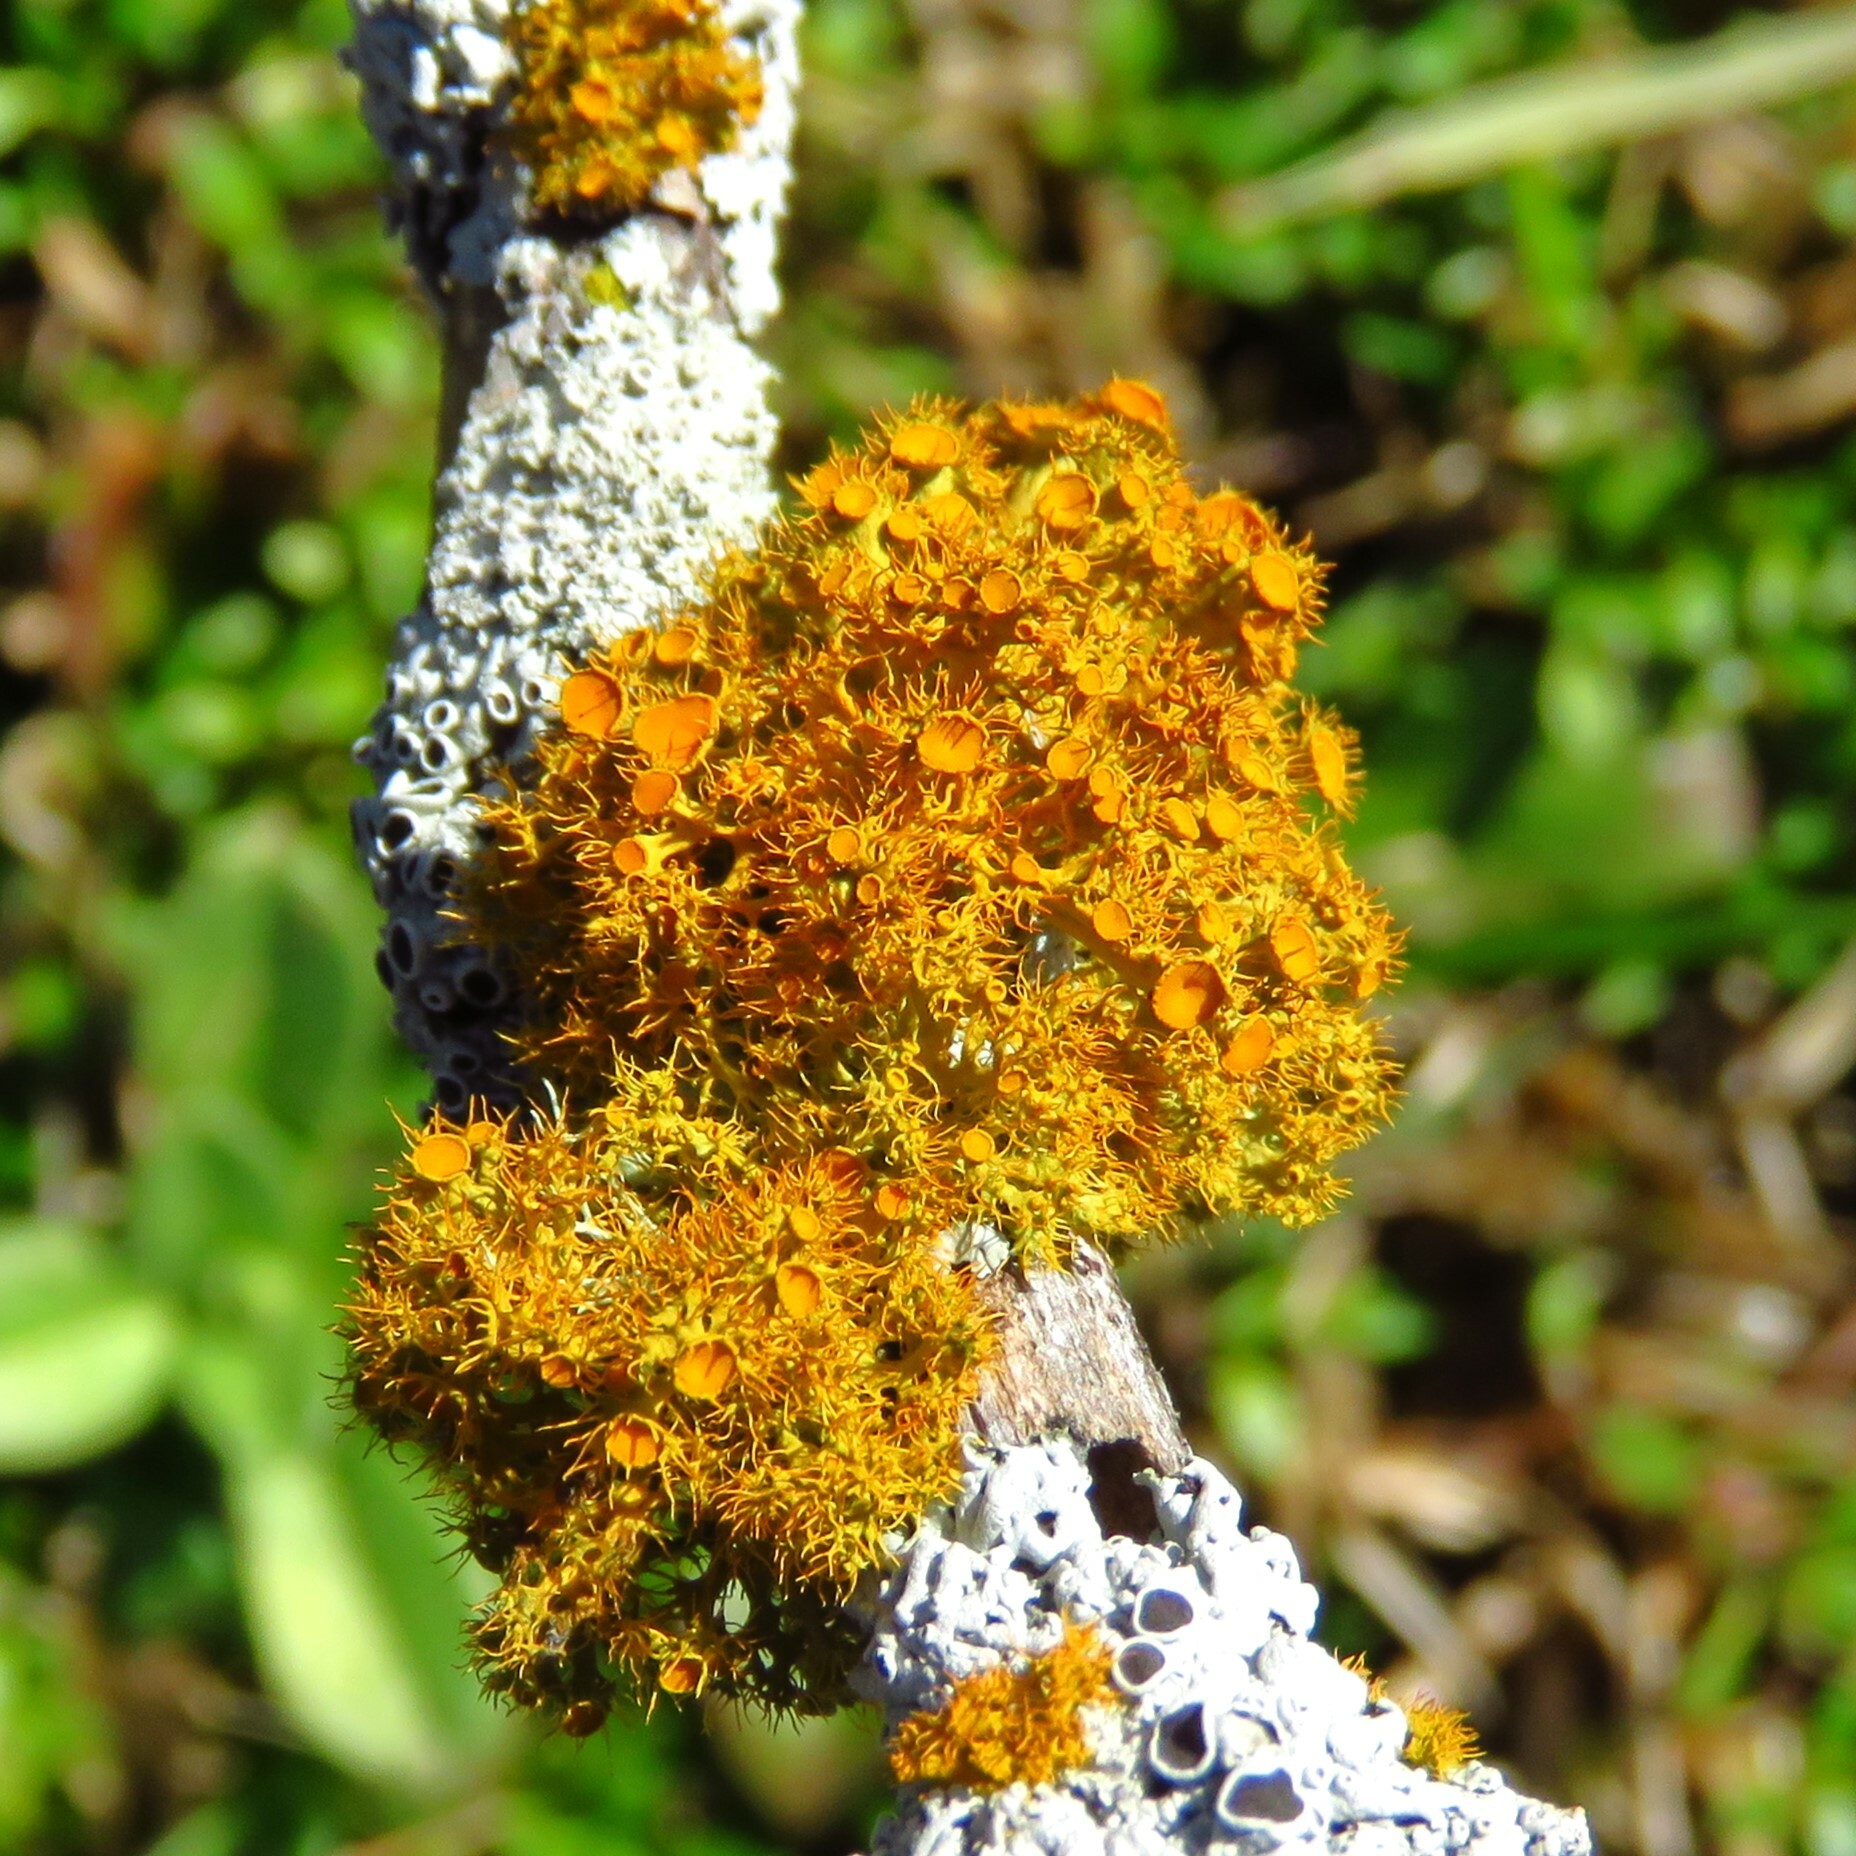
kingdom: Fungi
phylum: Ascomycota
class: Lecanoromycetes
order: Teloschistales
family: Teloschistaceae
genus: Niorma
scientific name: Niorma chrysophthalma
